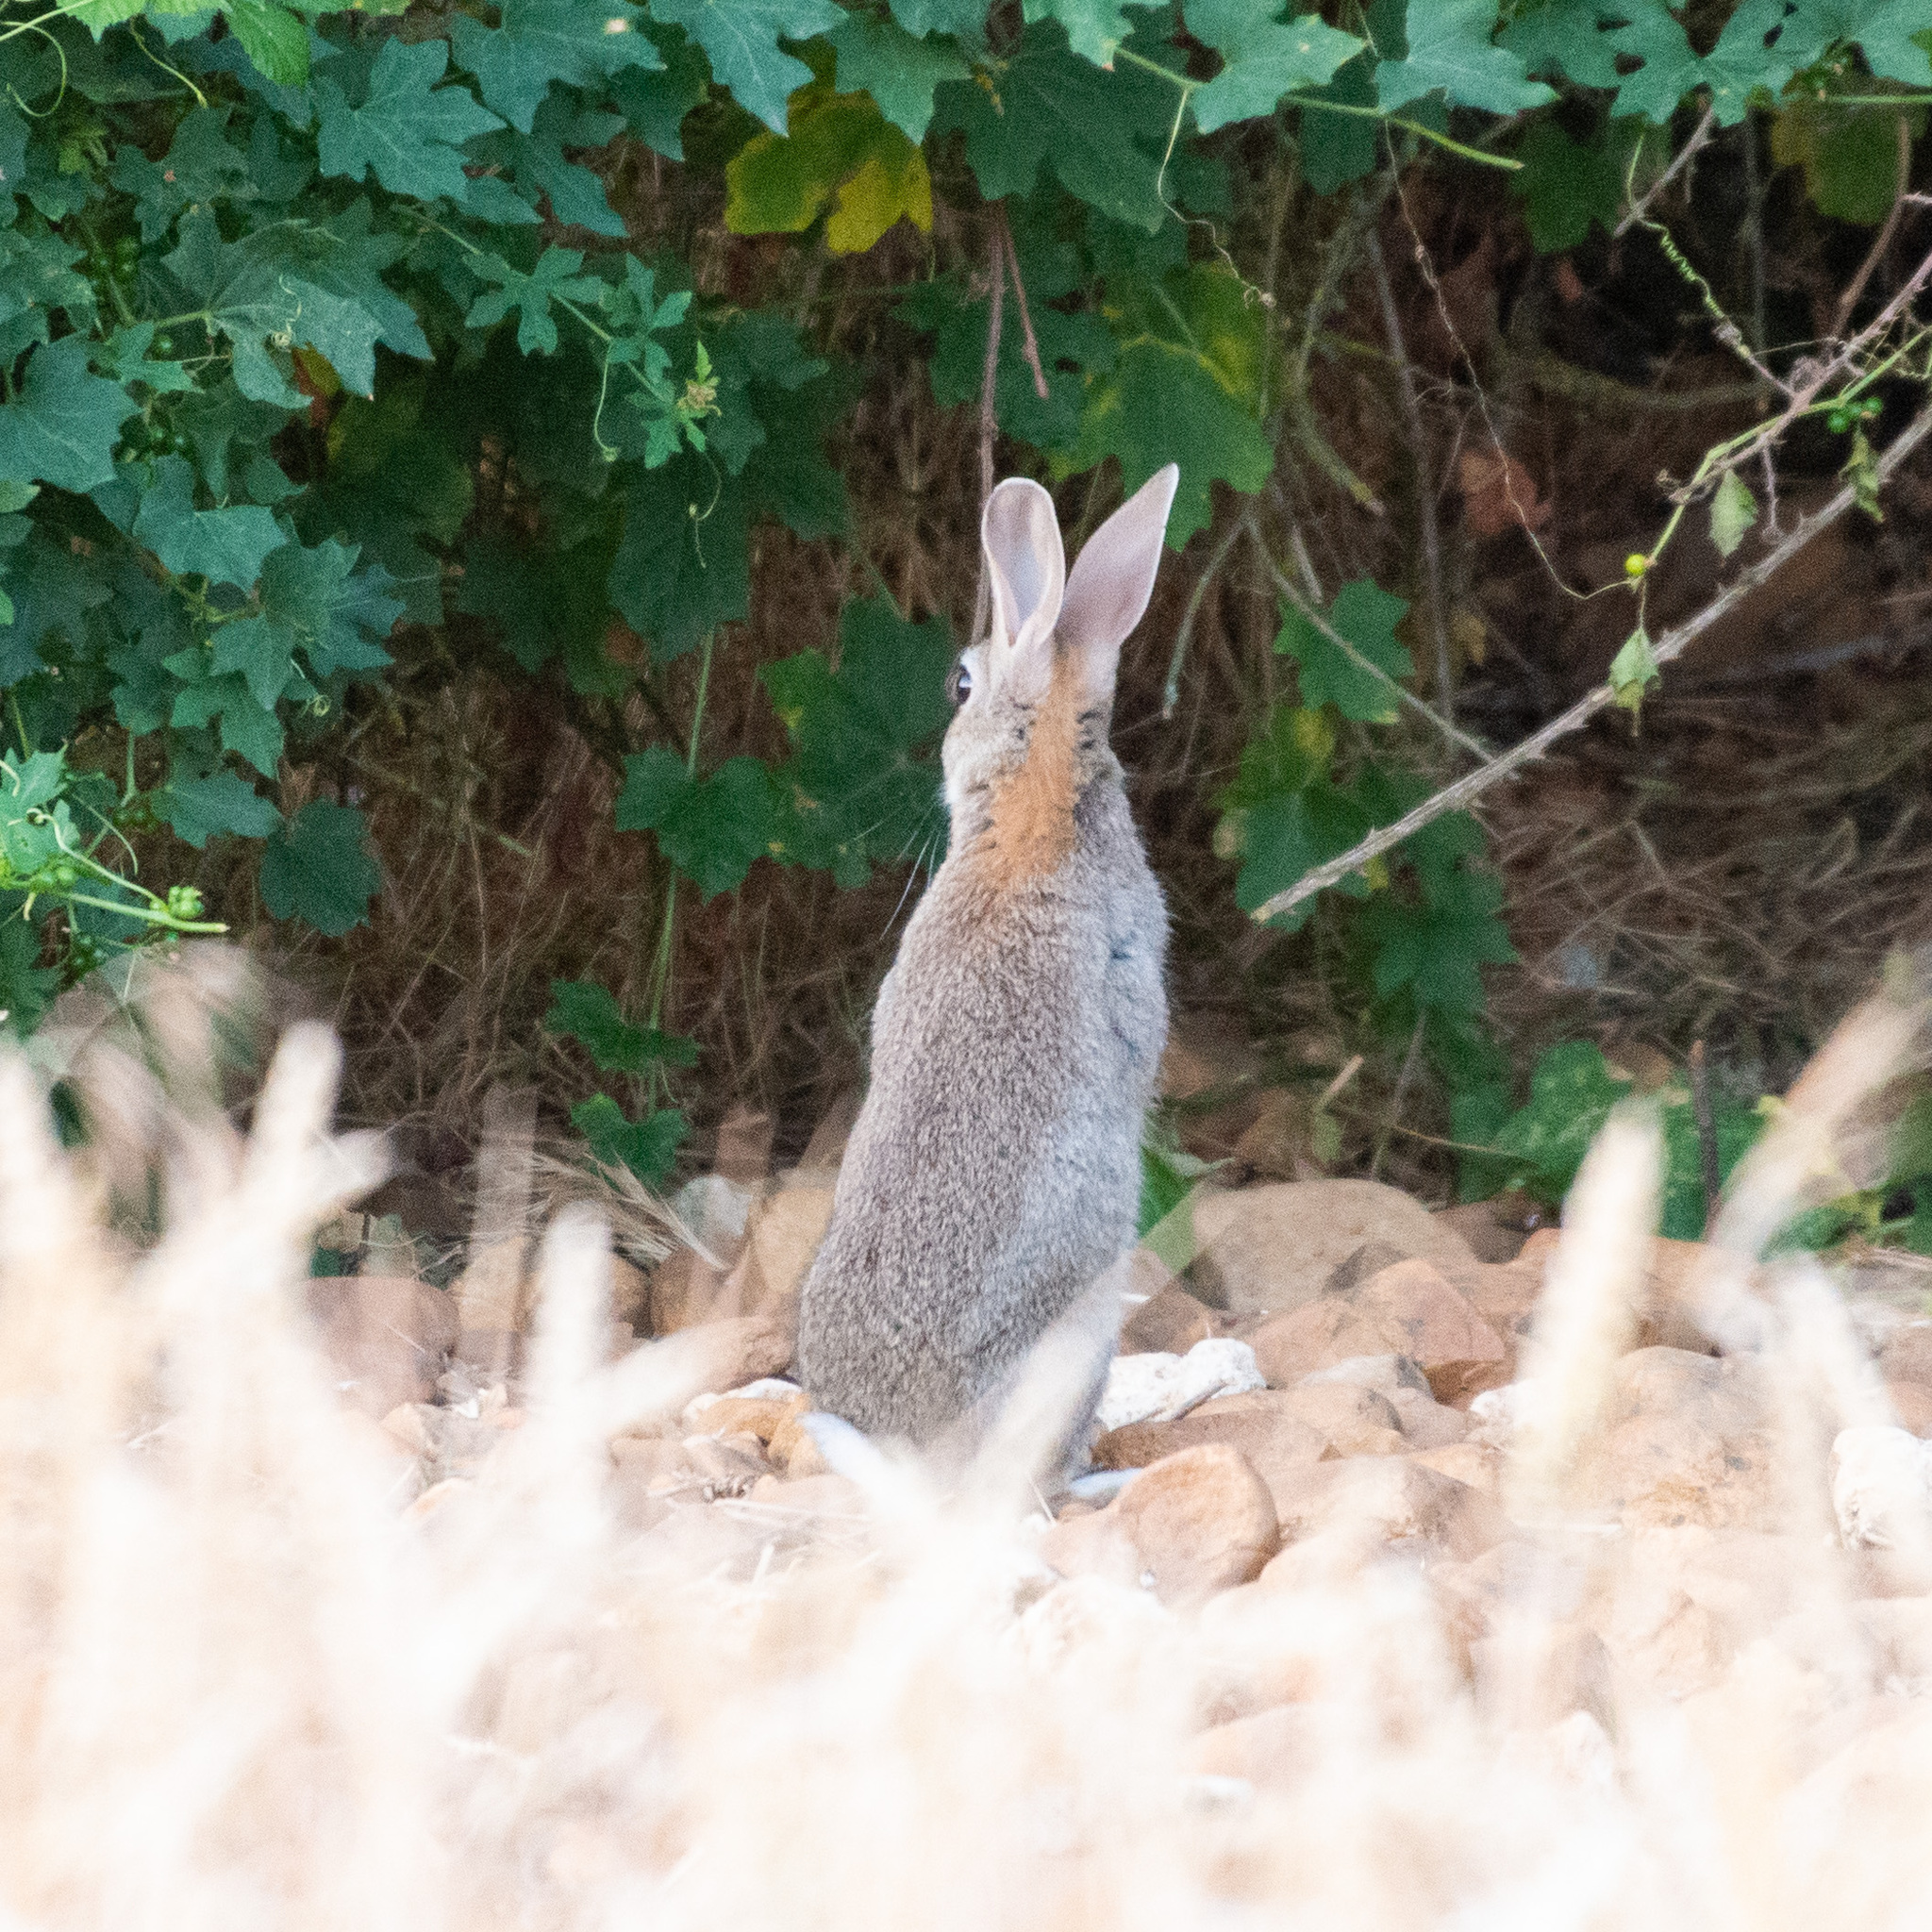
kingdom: Animalia
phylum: Chordata
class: Mammalia
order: Lagomorpha
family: Leporidae
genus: Oryctolagus
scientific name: Oryctolagus cuniculus
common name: European rabbit
